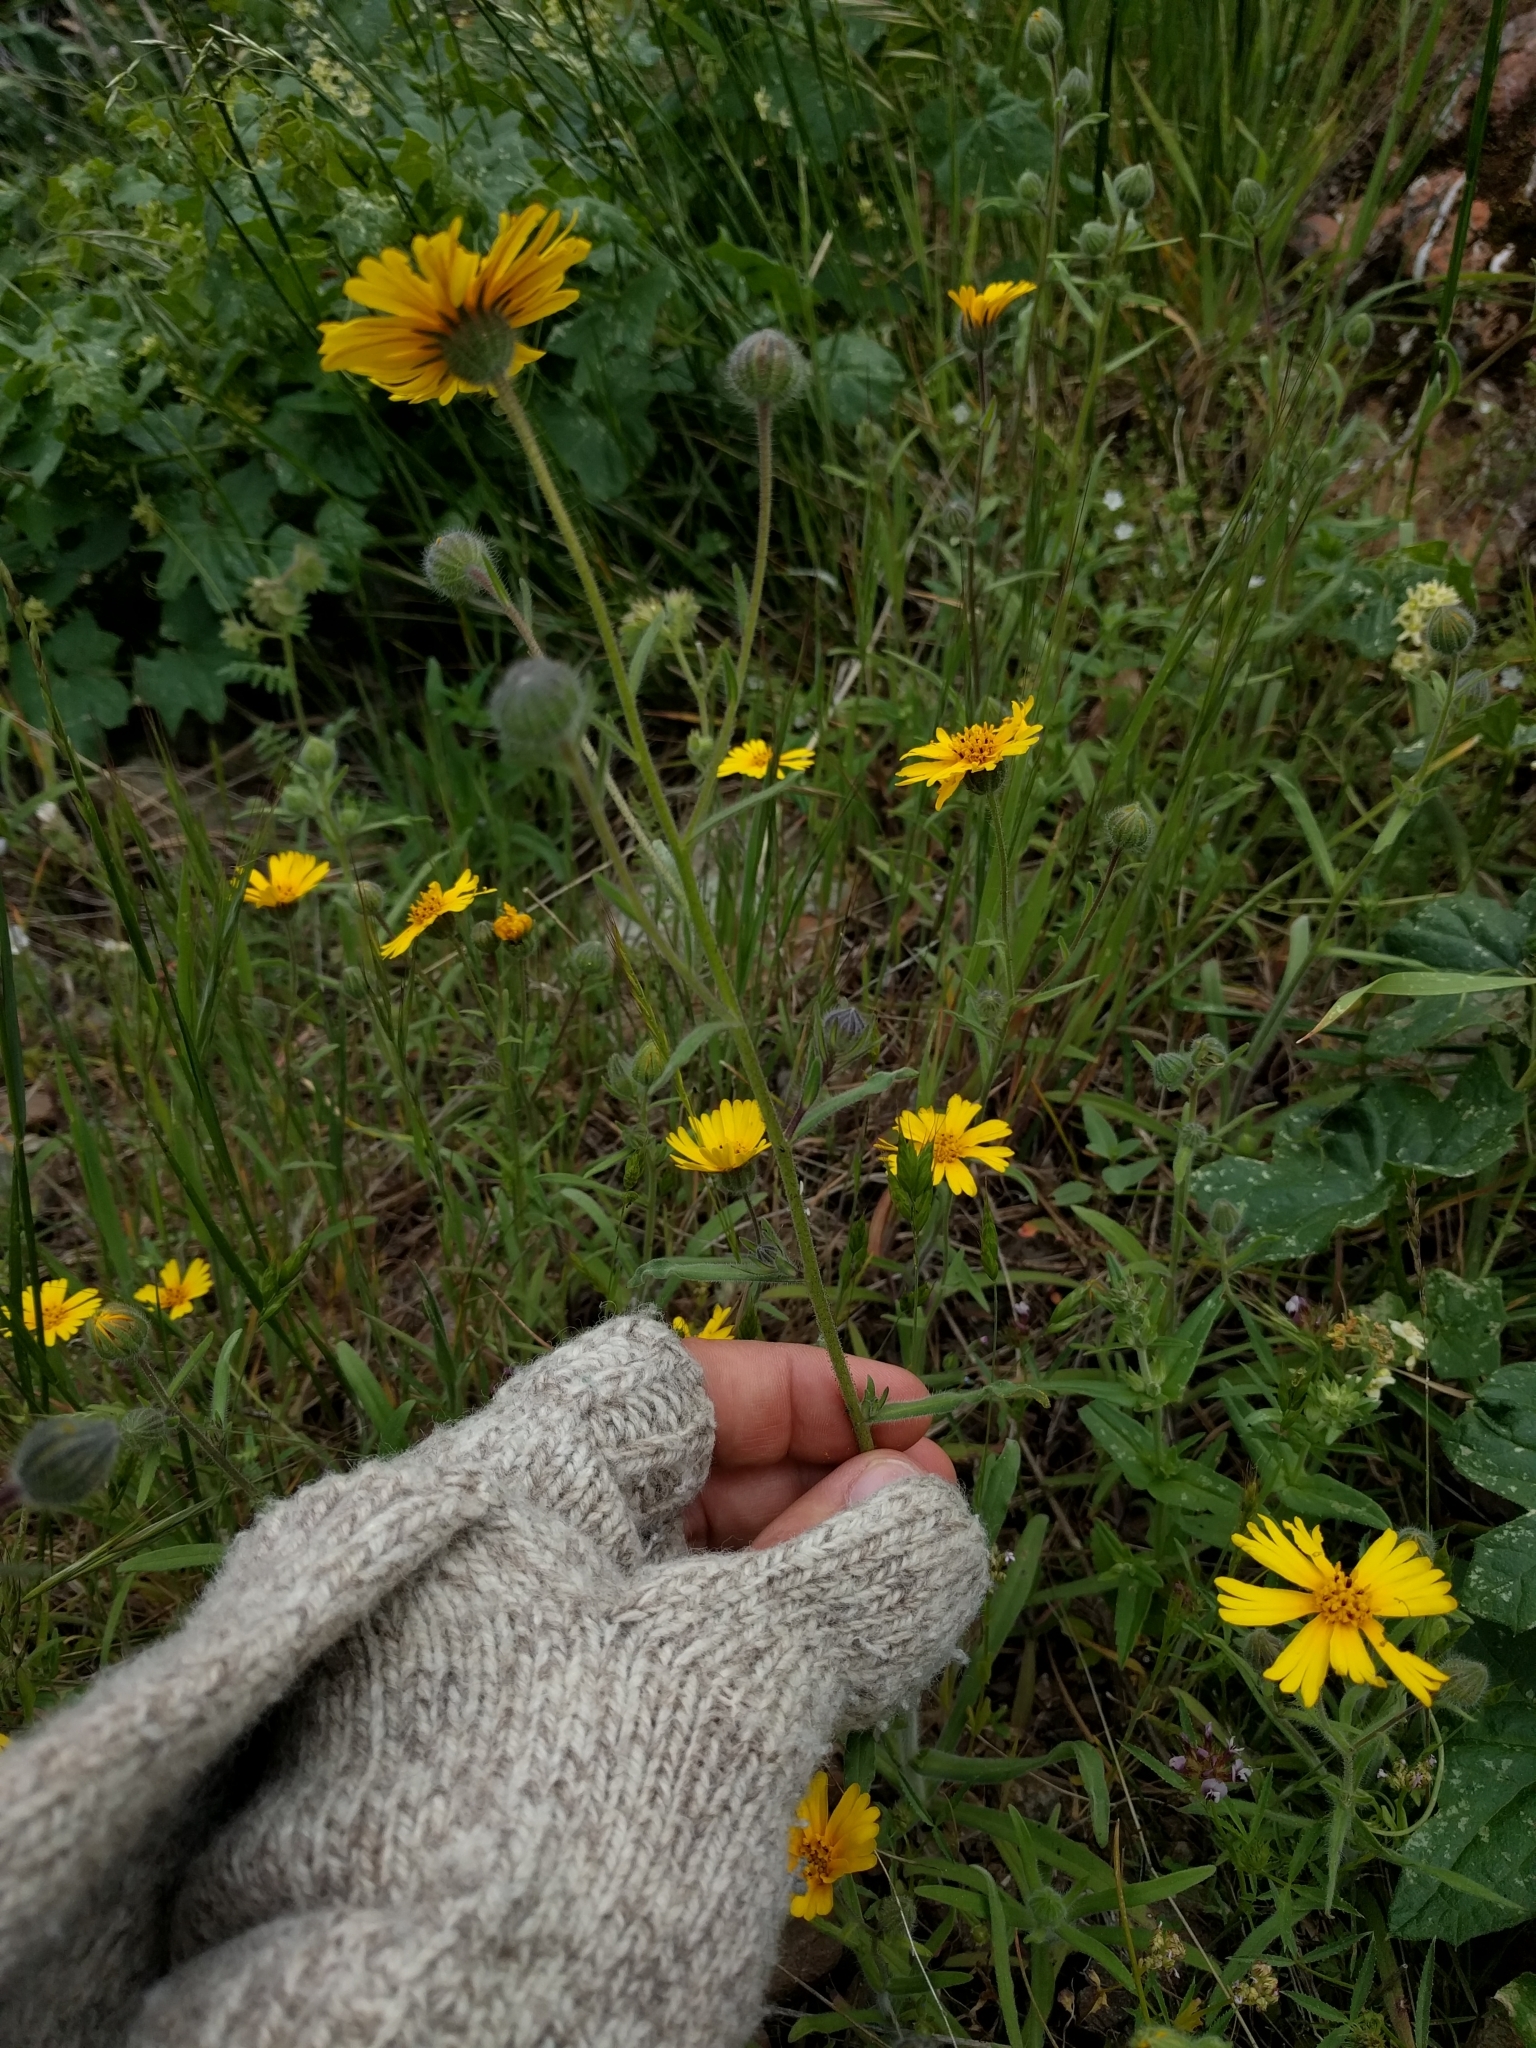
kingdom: Plantae
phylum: Tracheophyta
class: Magnoliopsida
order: Asterales
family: Asteraceae
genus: Madia
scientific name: Madia elegans
